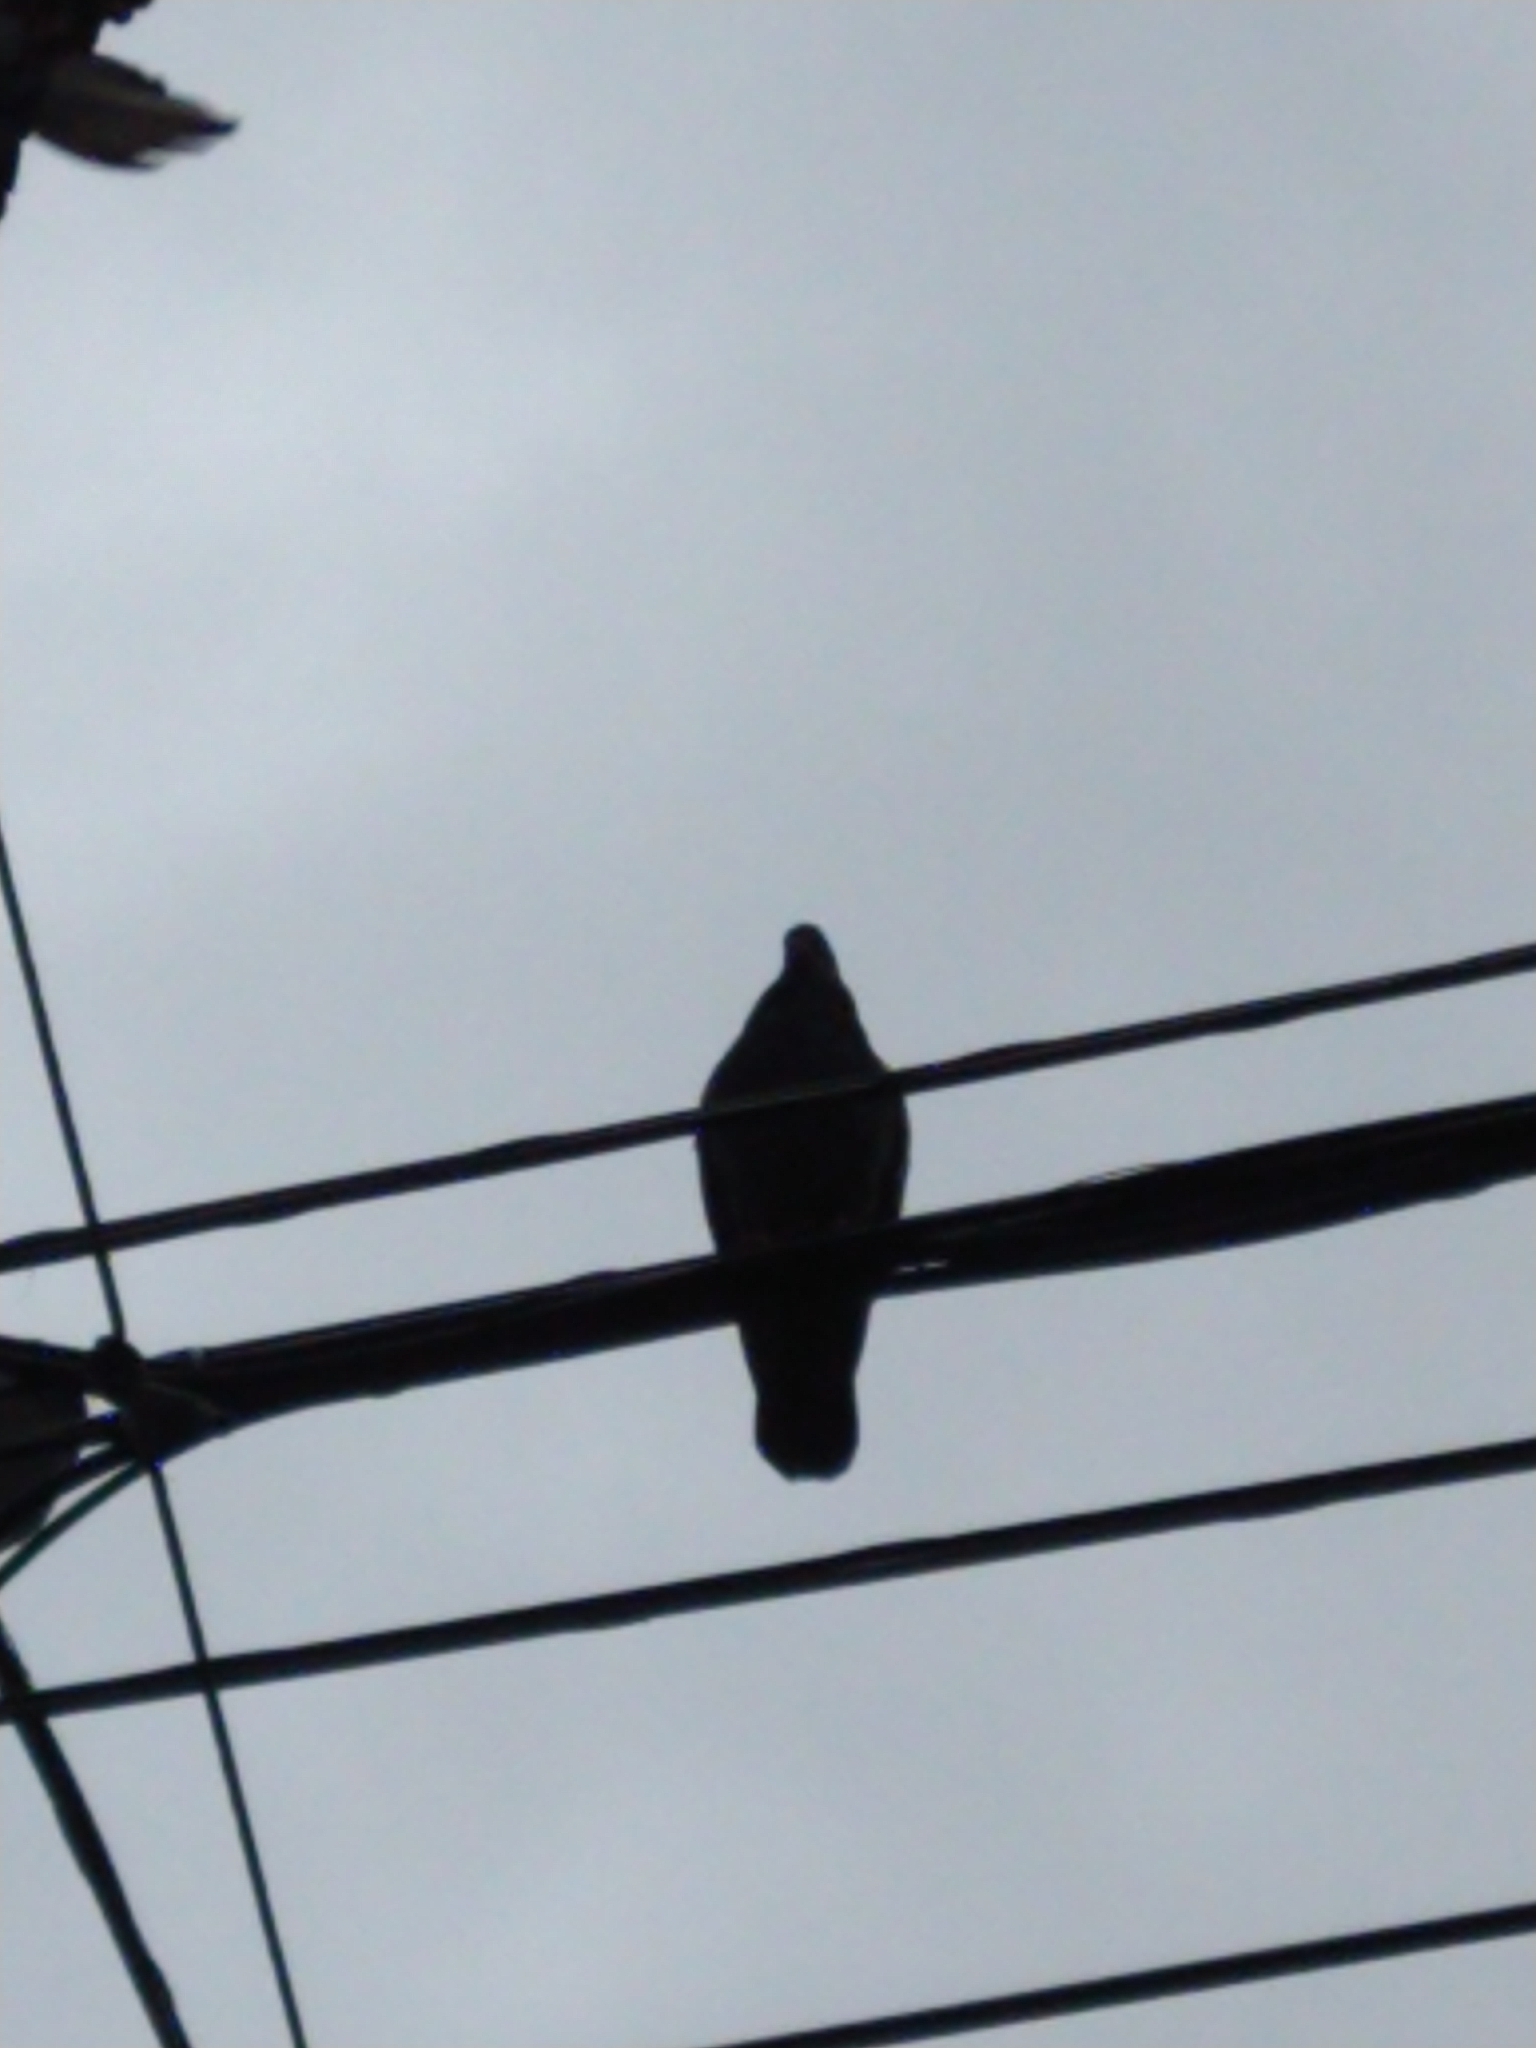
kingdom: Animalia
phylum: Chordata
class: Aves
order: Columbiformes
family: Columbidae
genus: Columba
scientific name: Columba livia
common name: Rock pigeon
